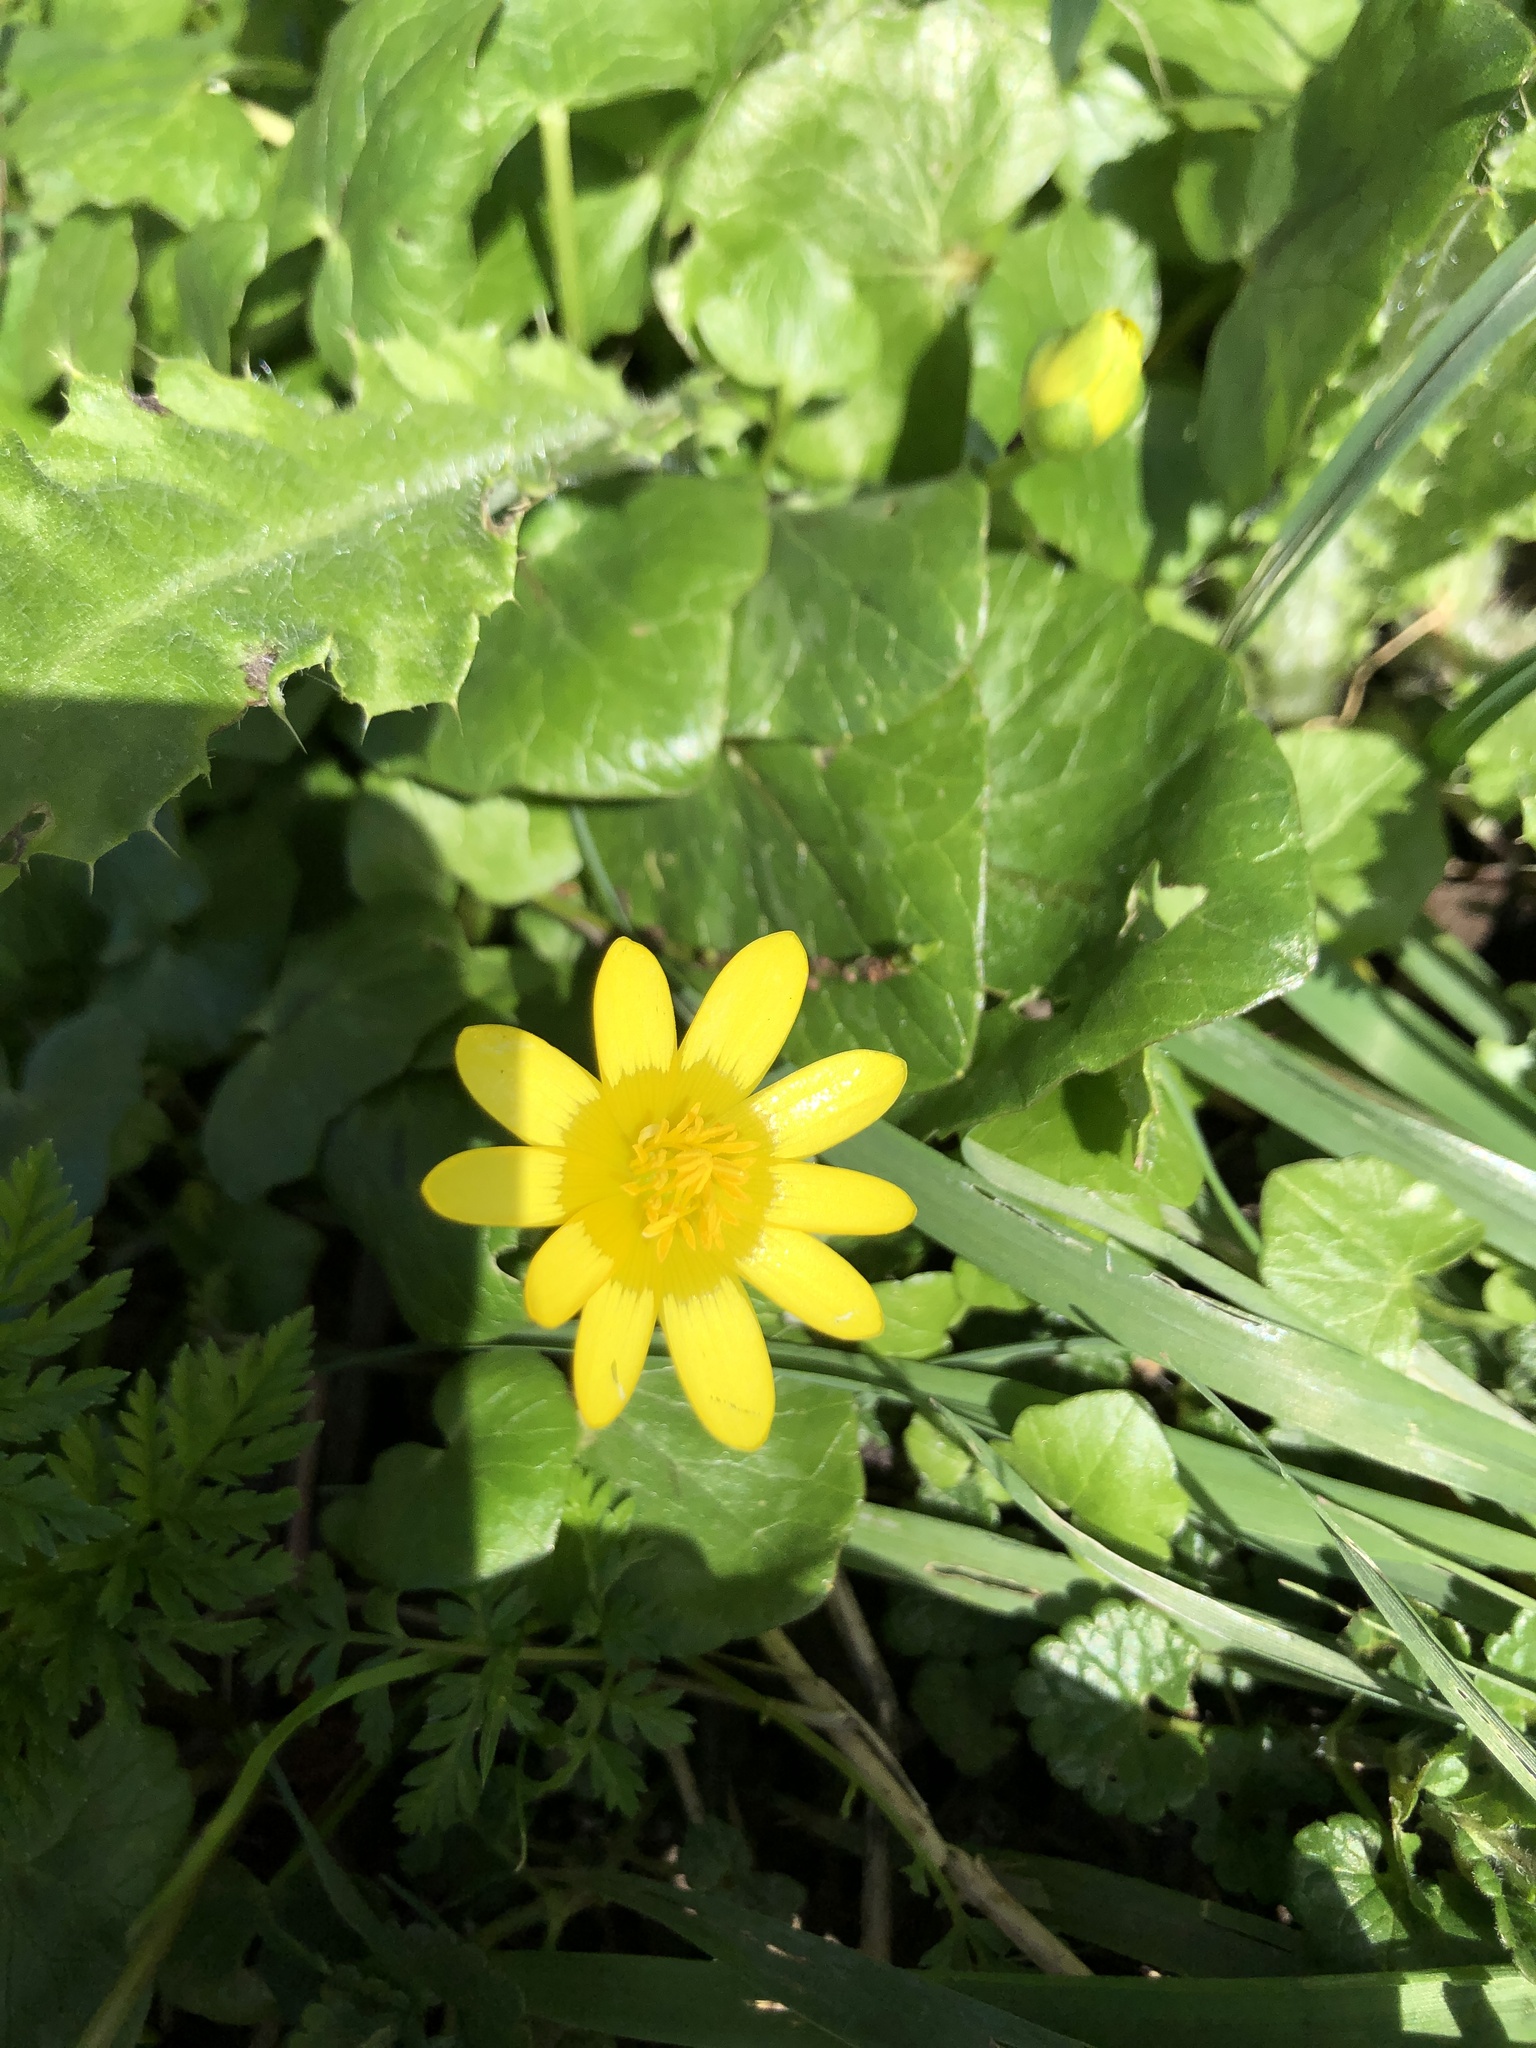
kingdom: Plantae
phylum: Tracheophyta
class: Magnoliopsida
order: Ranunculales
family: Ranunculaceae
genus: Ficaria
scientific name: Ficaria verna
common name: Lesser celandine
